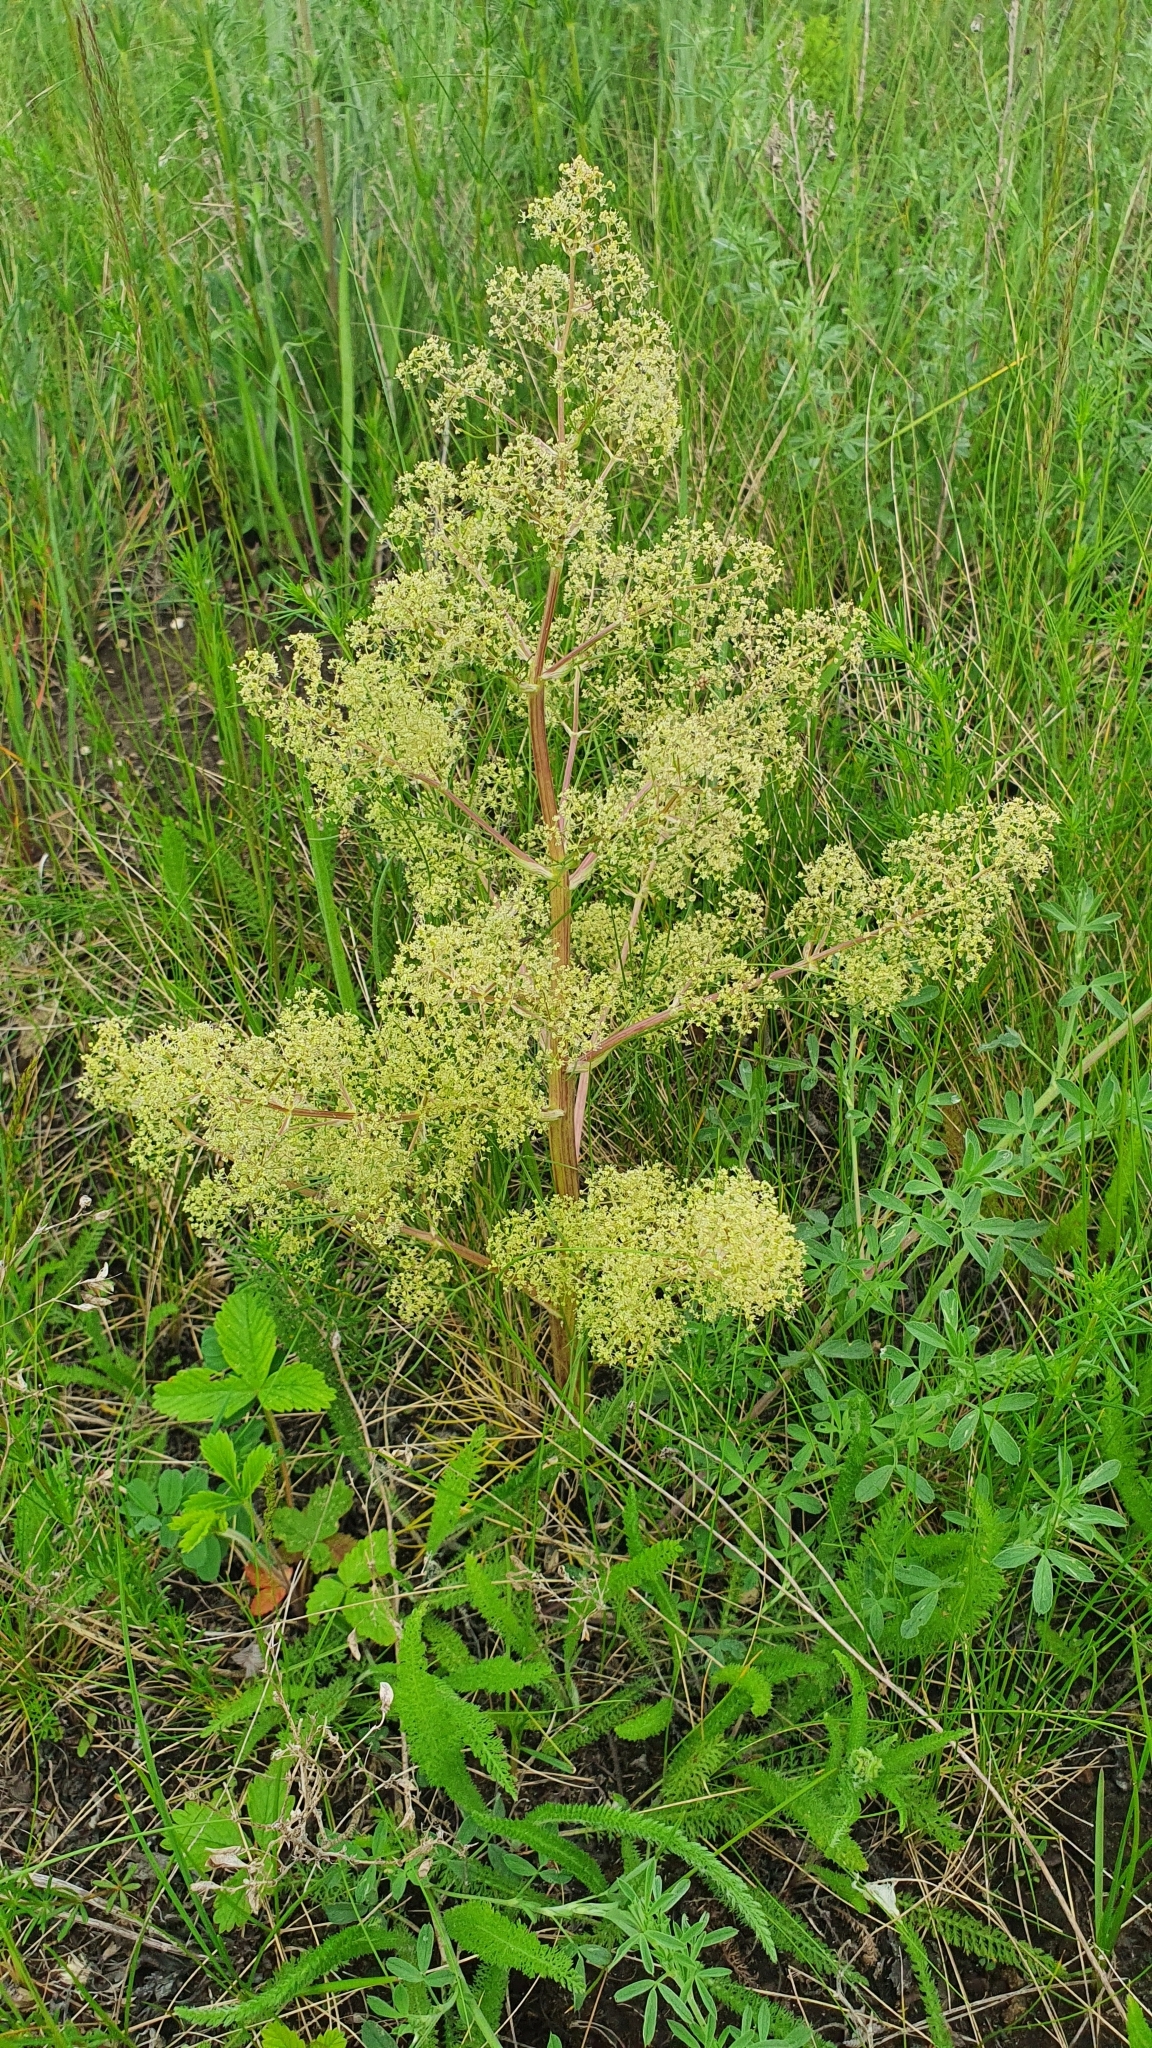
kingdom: Plantae
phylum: Tracheophyta
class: Magnoliopsida
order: Apiales
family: Apiaceae
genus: Trinia
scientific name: Trinia multicaulis
